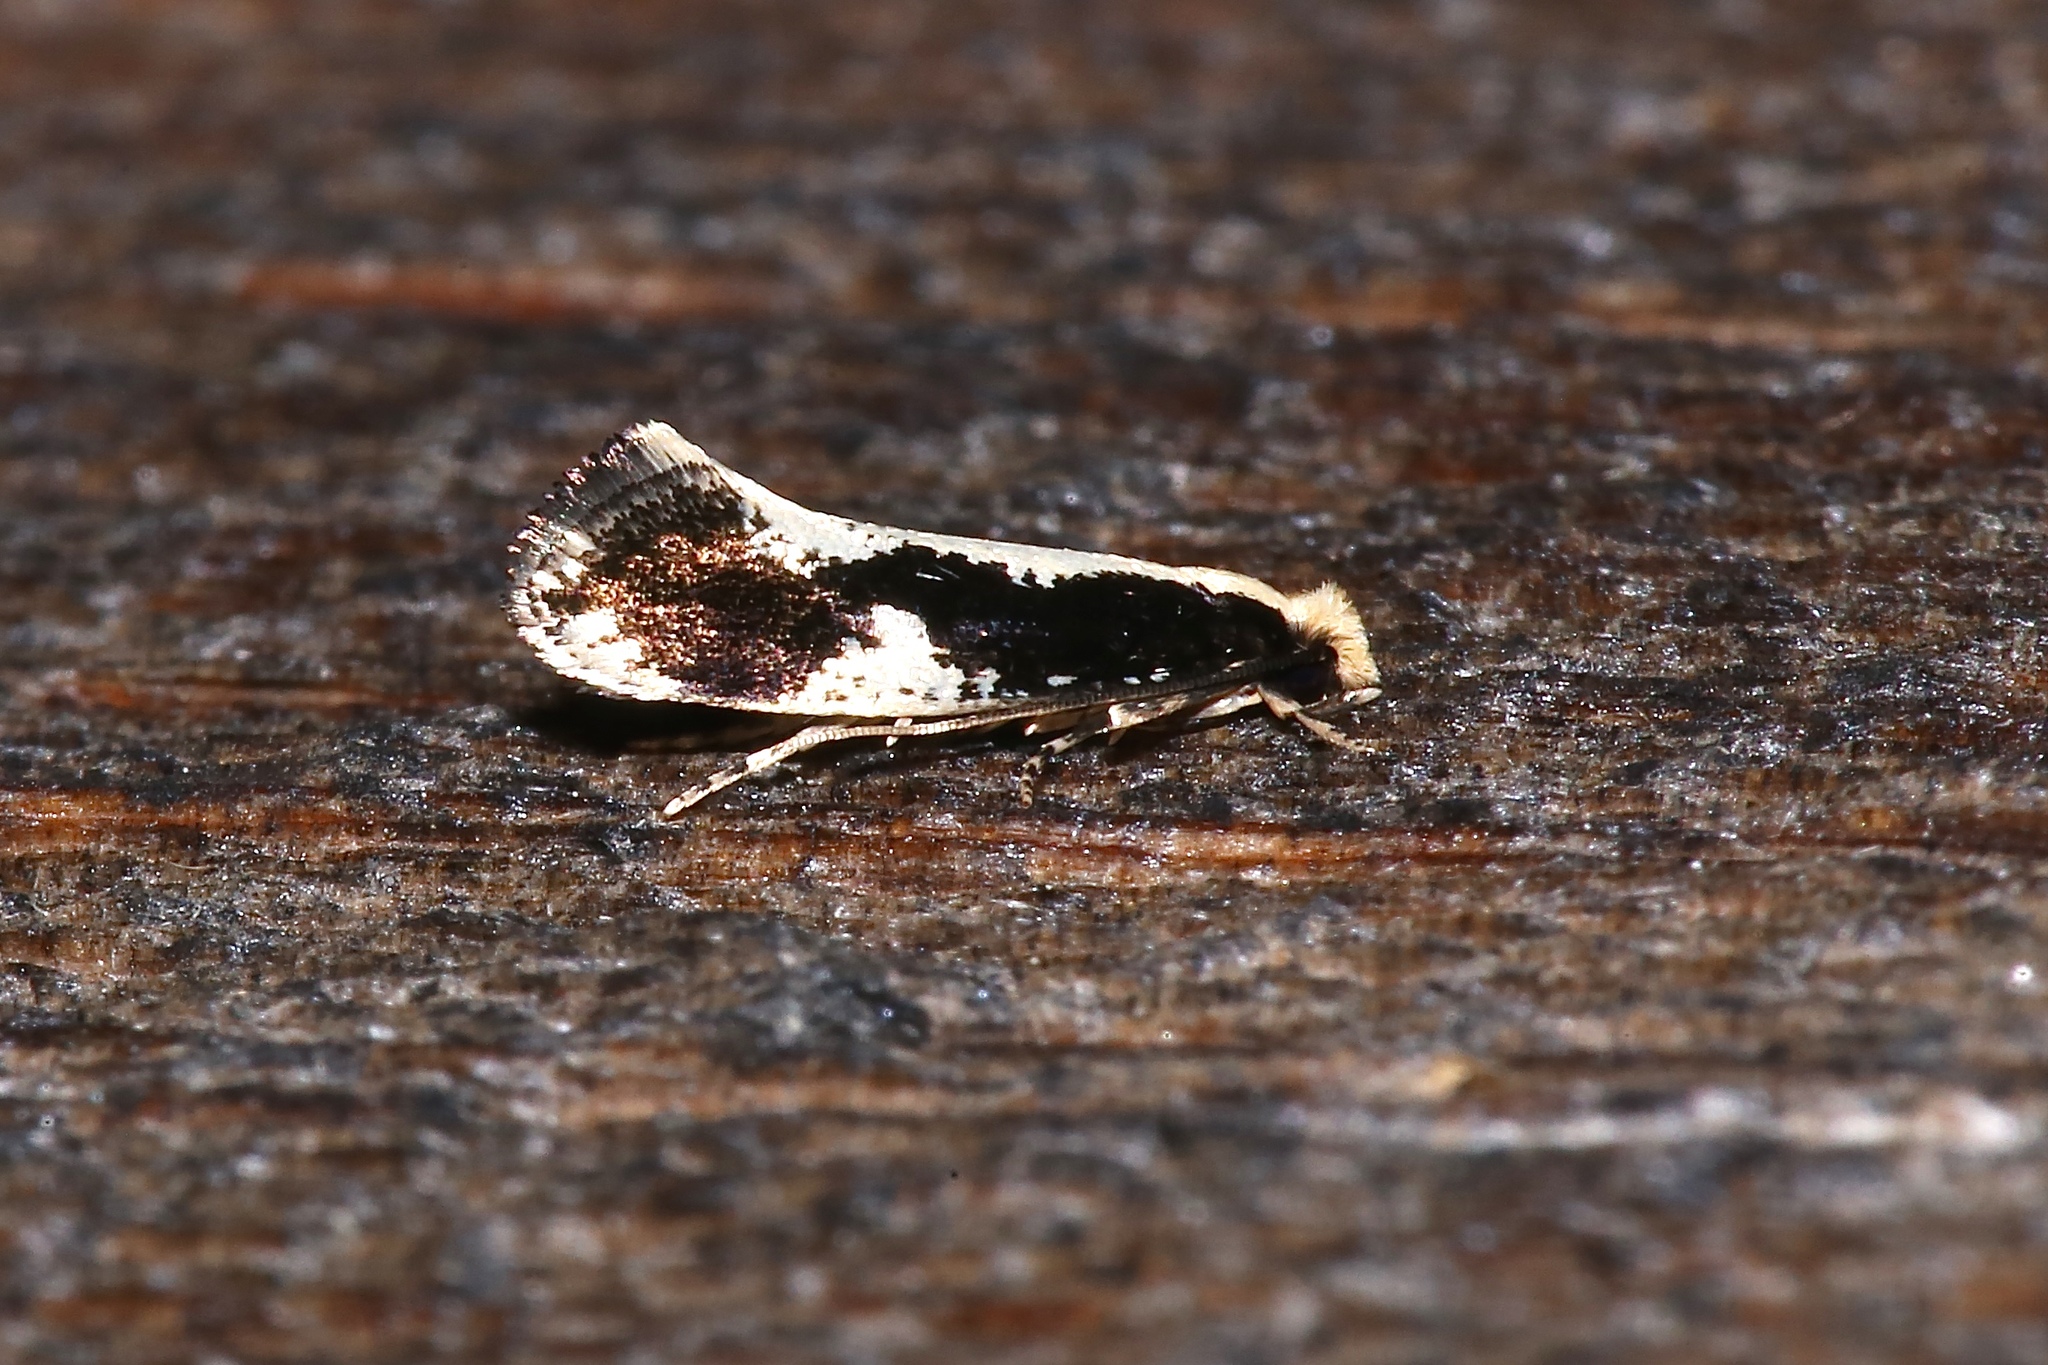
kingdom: Animalia
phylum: Arthropoda
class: Insecta
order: Lepidoptera
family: Tineidae
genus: Monopis
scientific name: Monopis dorsistrigella
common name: Skunkback monopis moth
